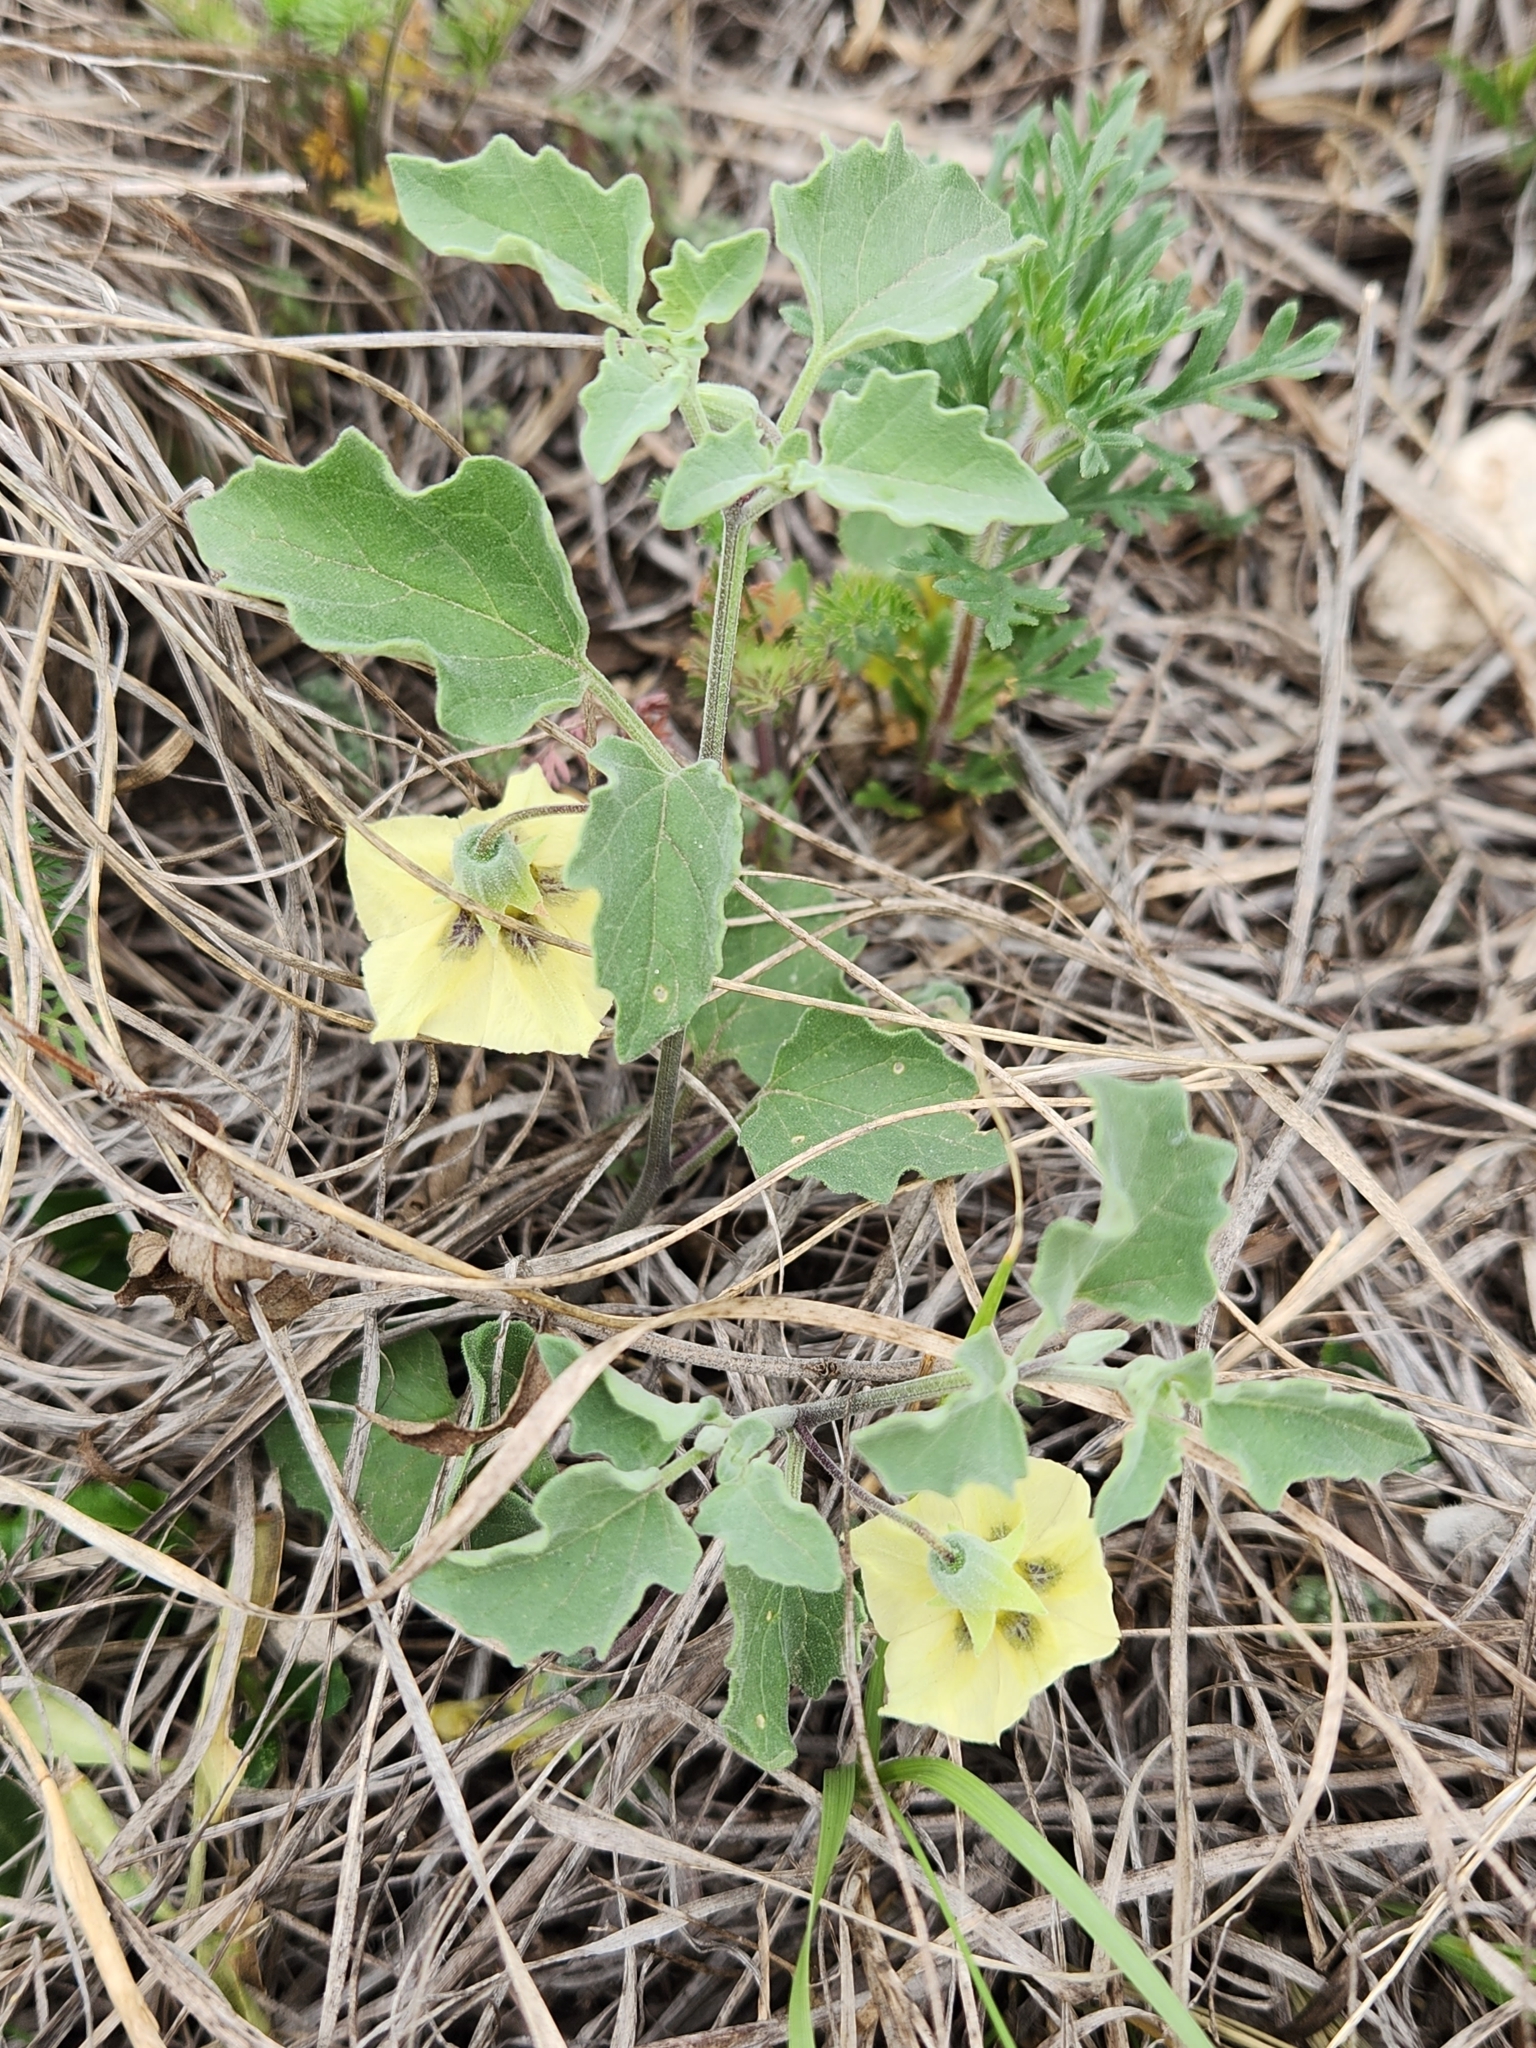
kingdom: Plantae
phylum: Tracheophyta
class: Magnoliopsida
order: Solanales
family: Solanaceae
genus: Physalis
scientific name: Physalis cinerascens
